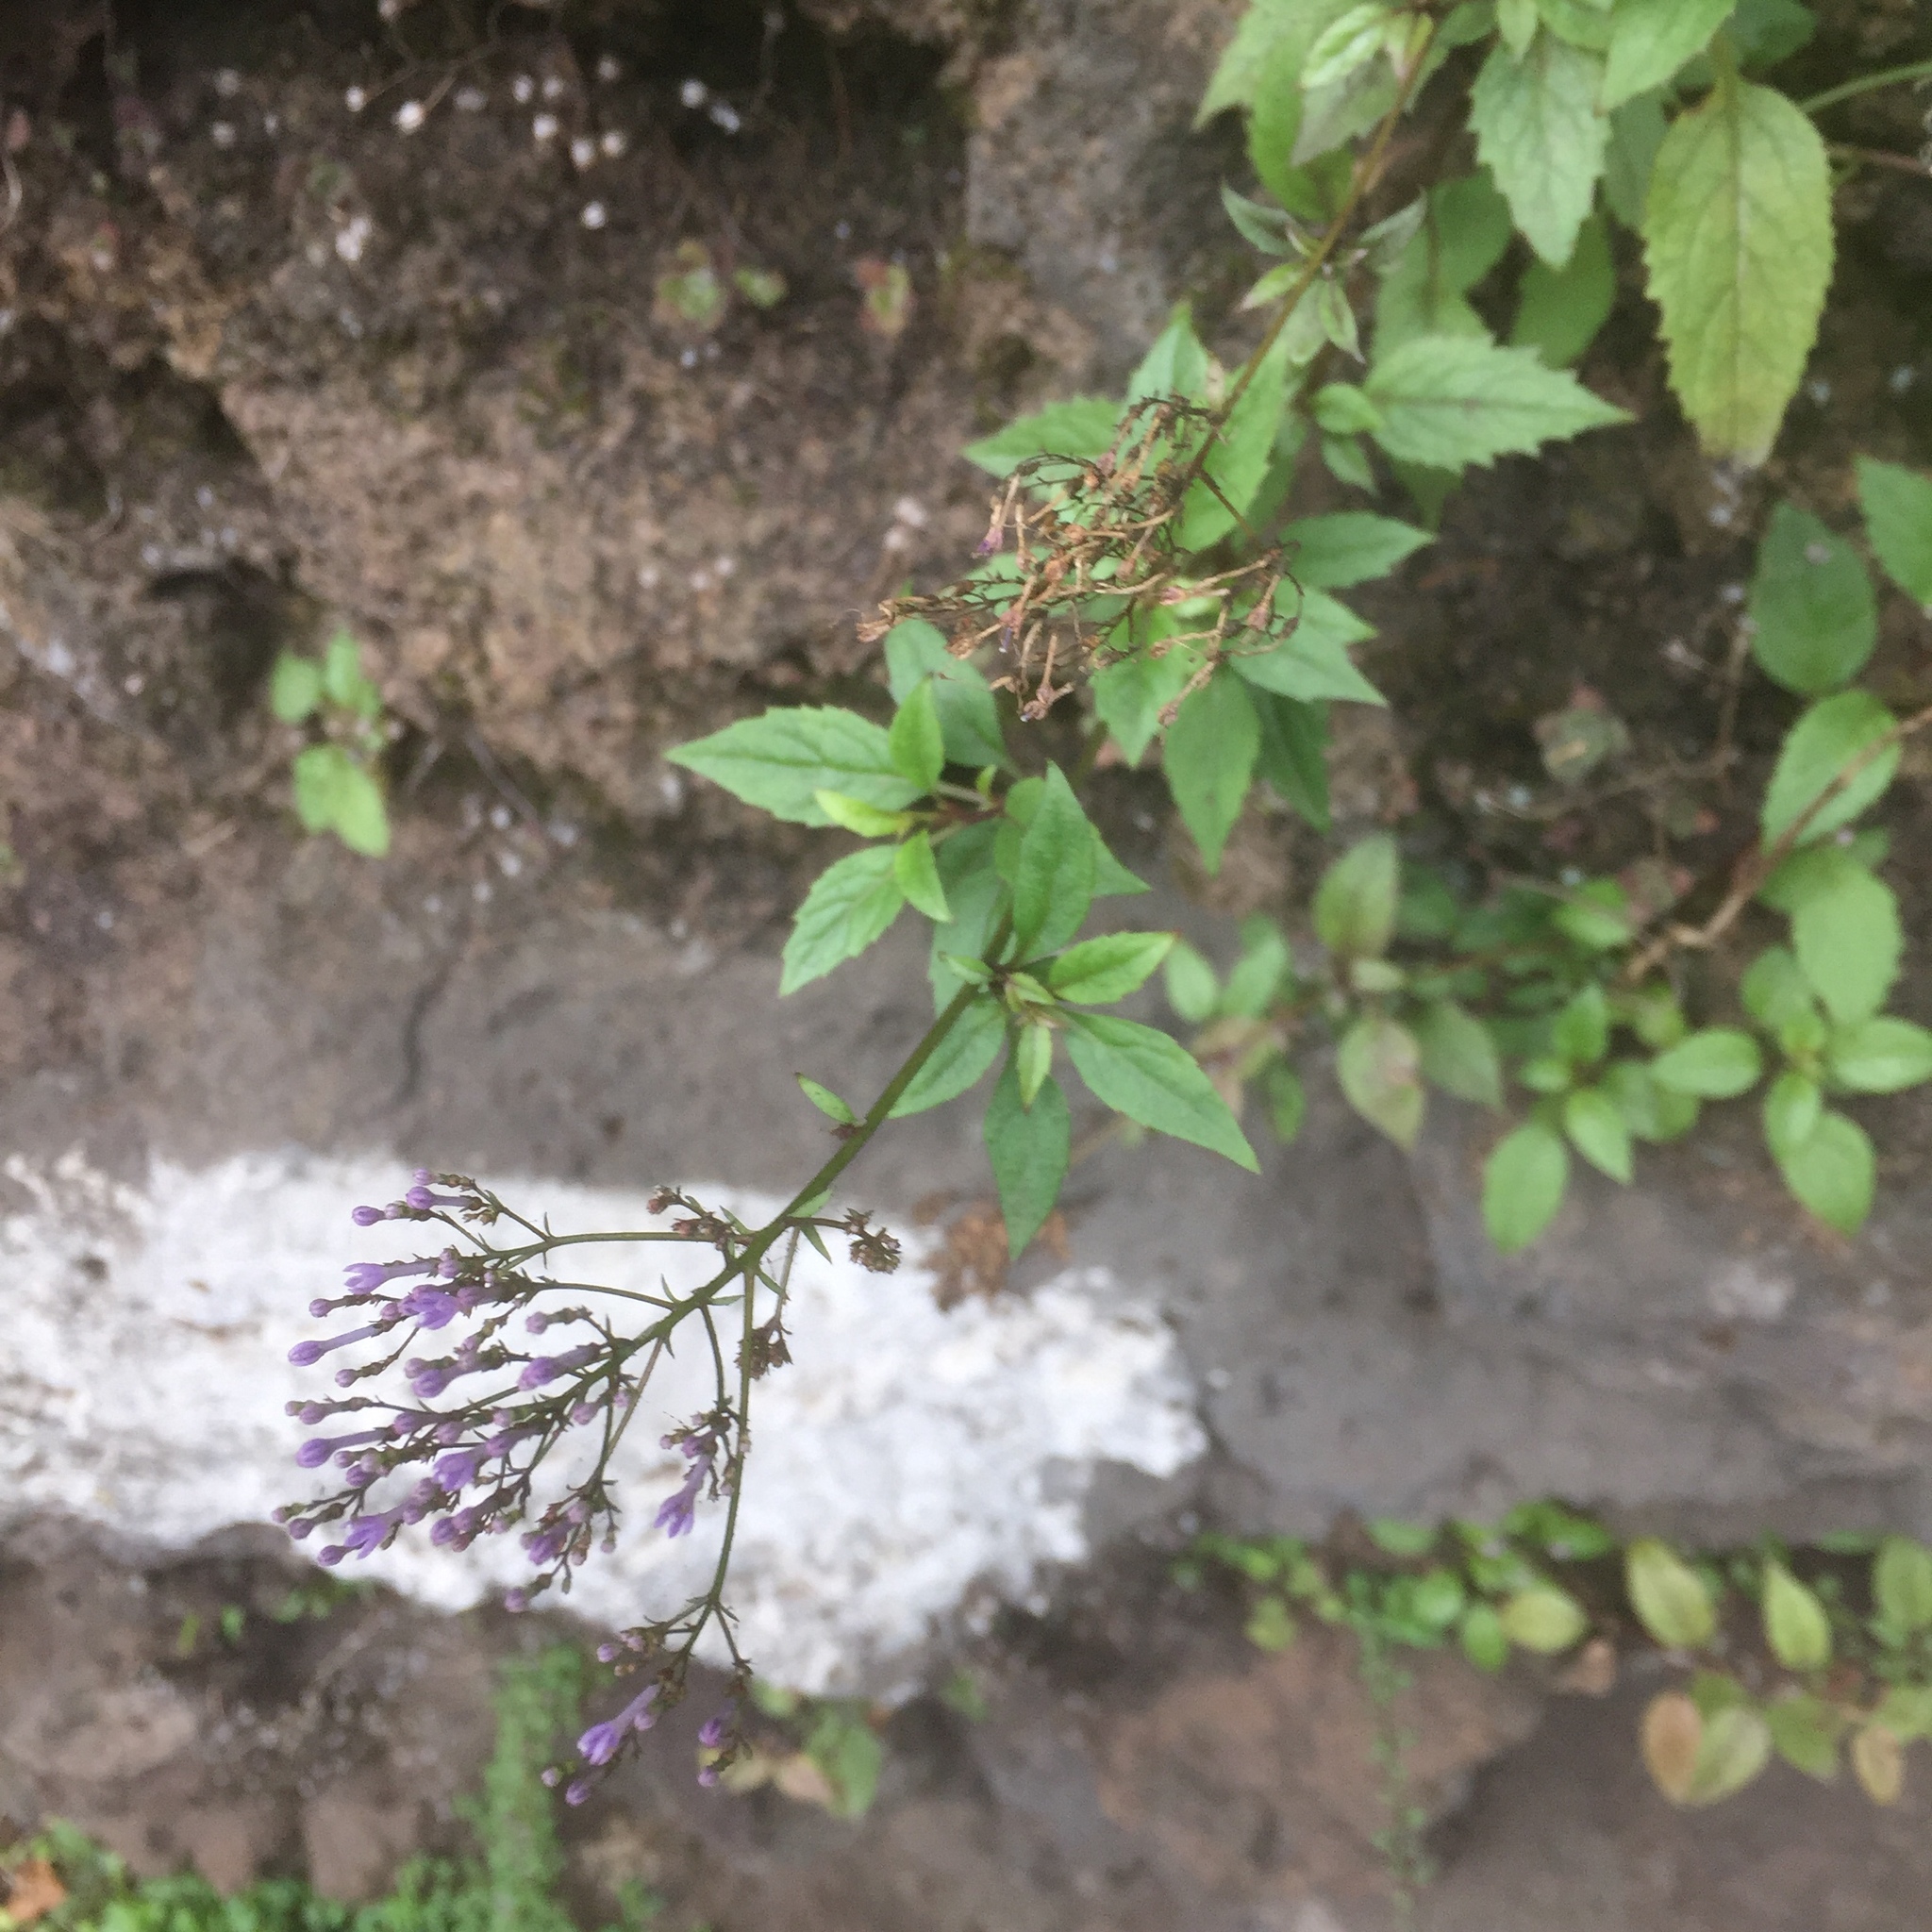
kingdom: Plantae
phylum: Tracheophyta
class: Magnoliopsida
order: Asterales
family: Campanulaceae
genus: Trachelium
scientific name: Trachelium caeruleum
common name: Throatwort
